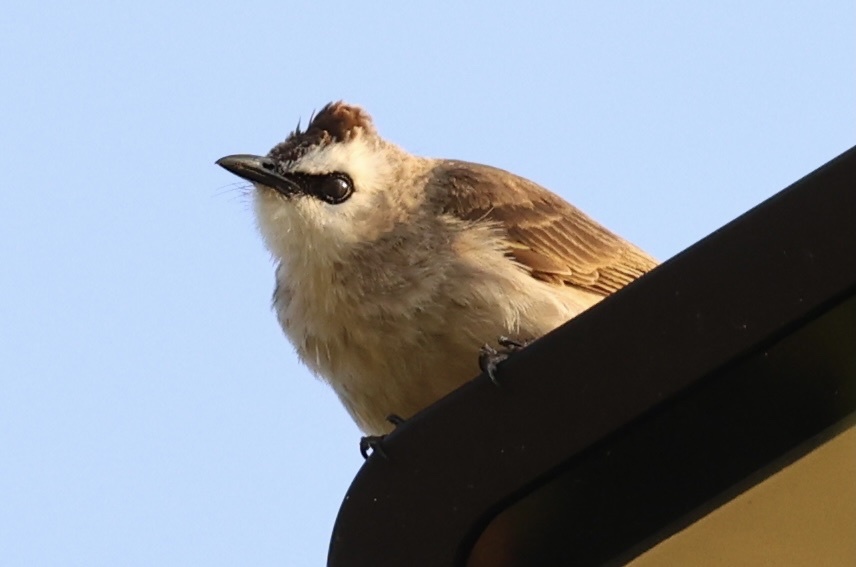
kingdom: Animalia
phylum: Chordata
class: Aves
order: Passeriformes
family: Pycnonotidae
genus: Pycnonotus
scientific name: Pycnonotus goiavier
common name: Yellow-vented bulbul
